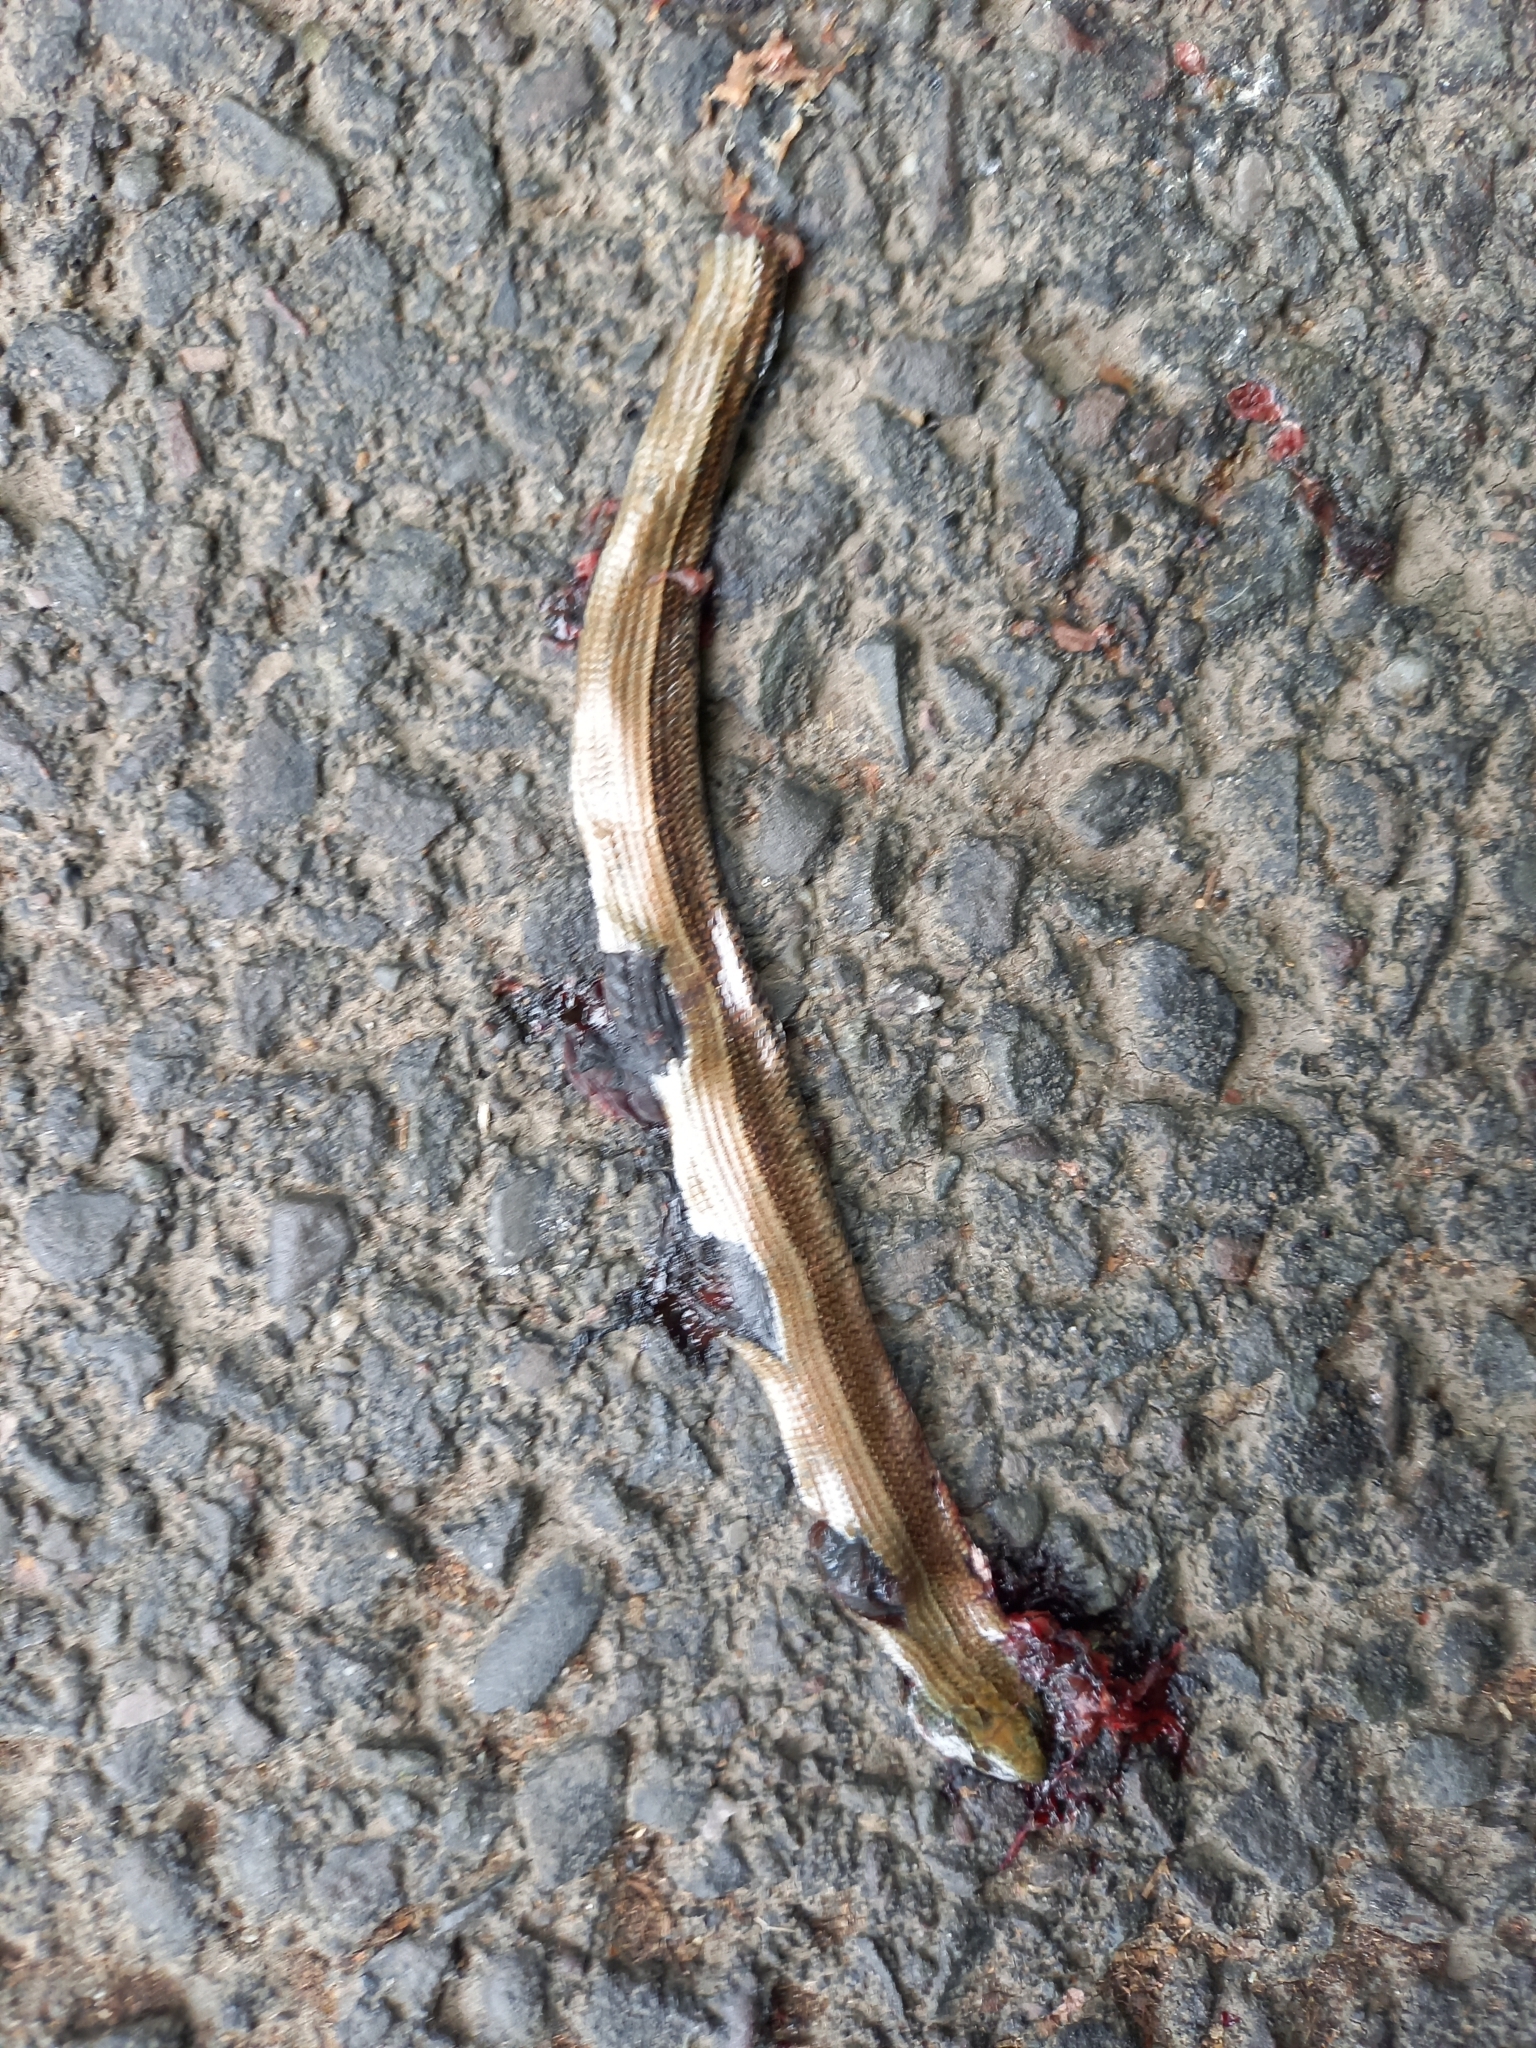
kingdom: Animalia
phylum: Chordata
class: Squamata
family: Anguidae
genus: Anguis
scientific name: Anguis fragilis
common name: Slow worm
